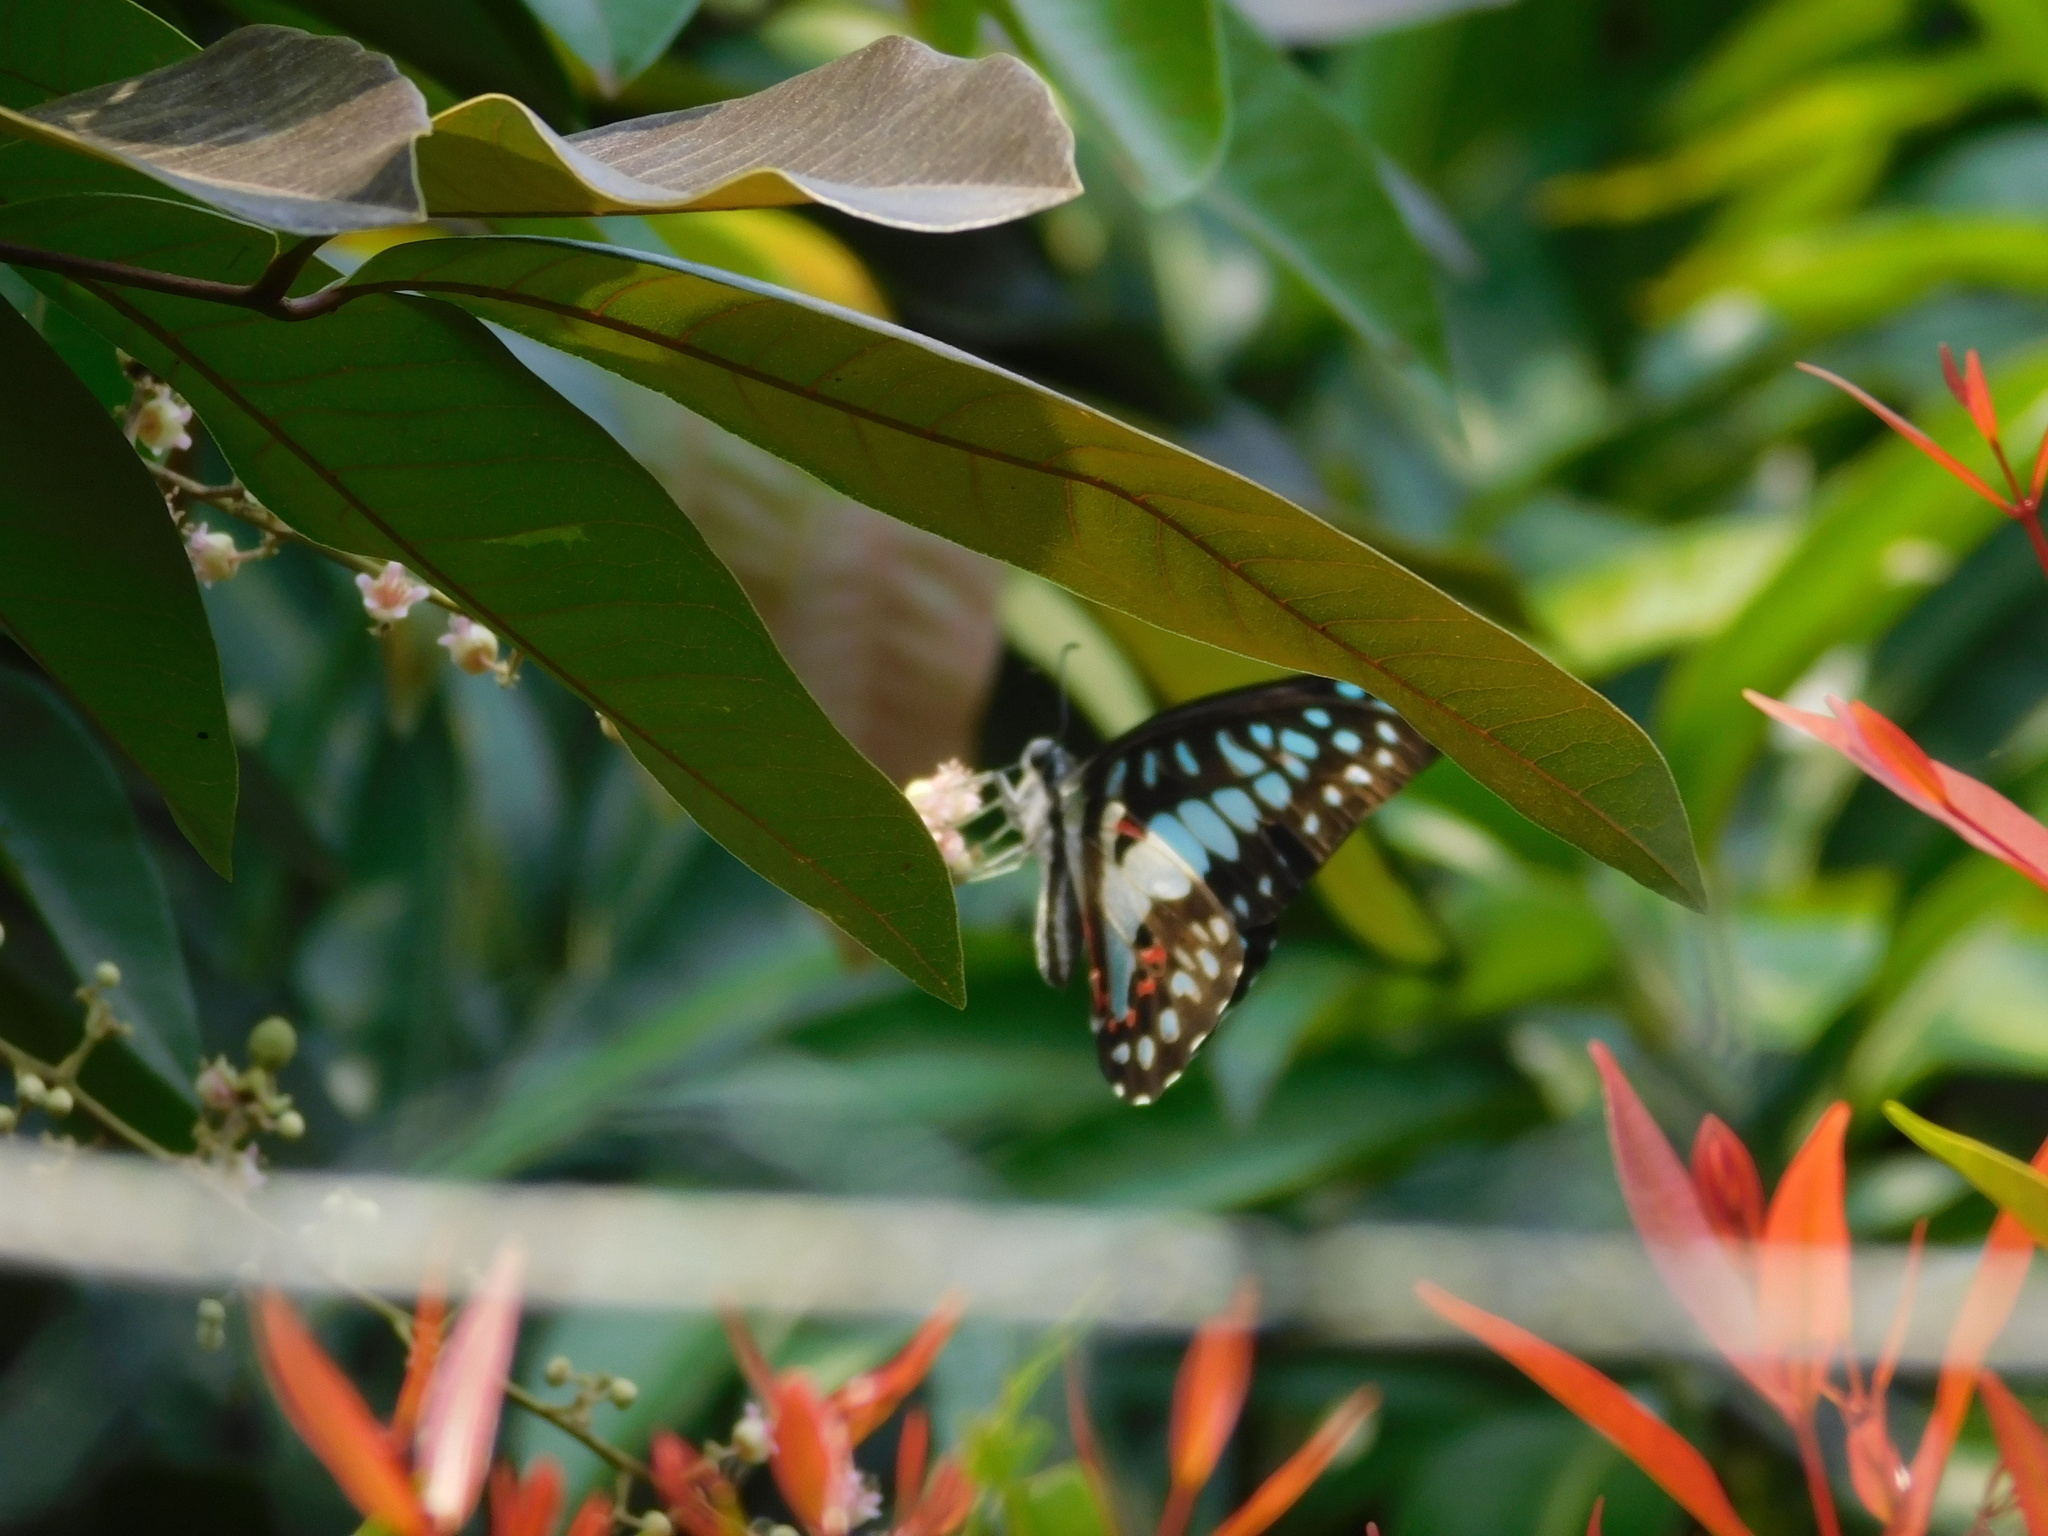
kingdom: Animalia
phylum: Arthropoda
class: Insecta
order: Lepidoptera
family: Papilionidae
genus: Graphium
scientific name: Graphium doson
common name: Common jay
